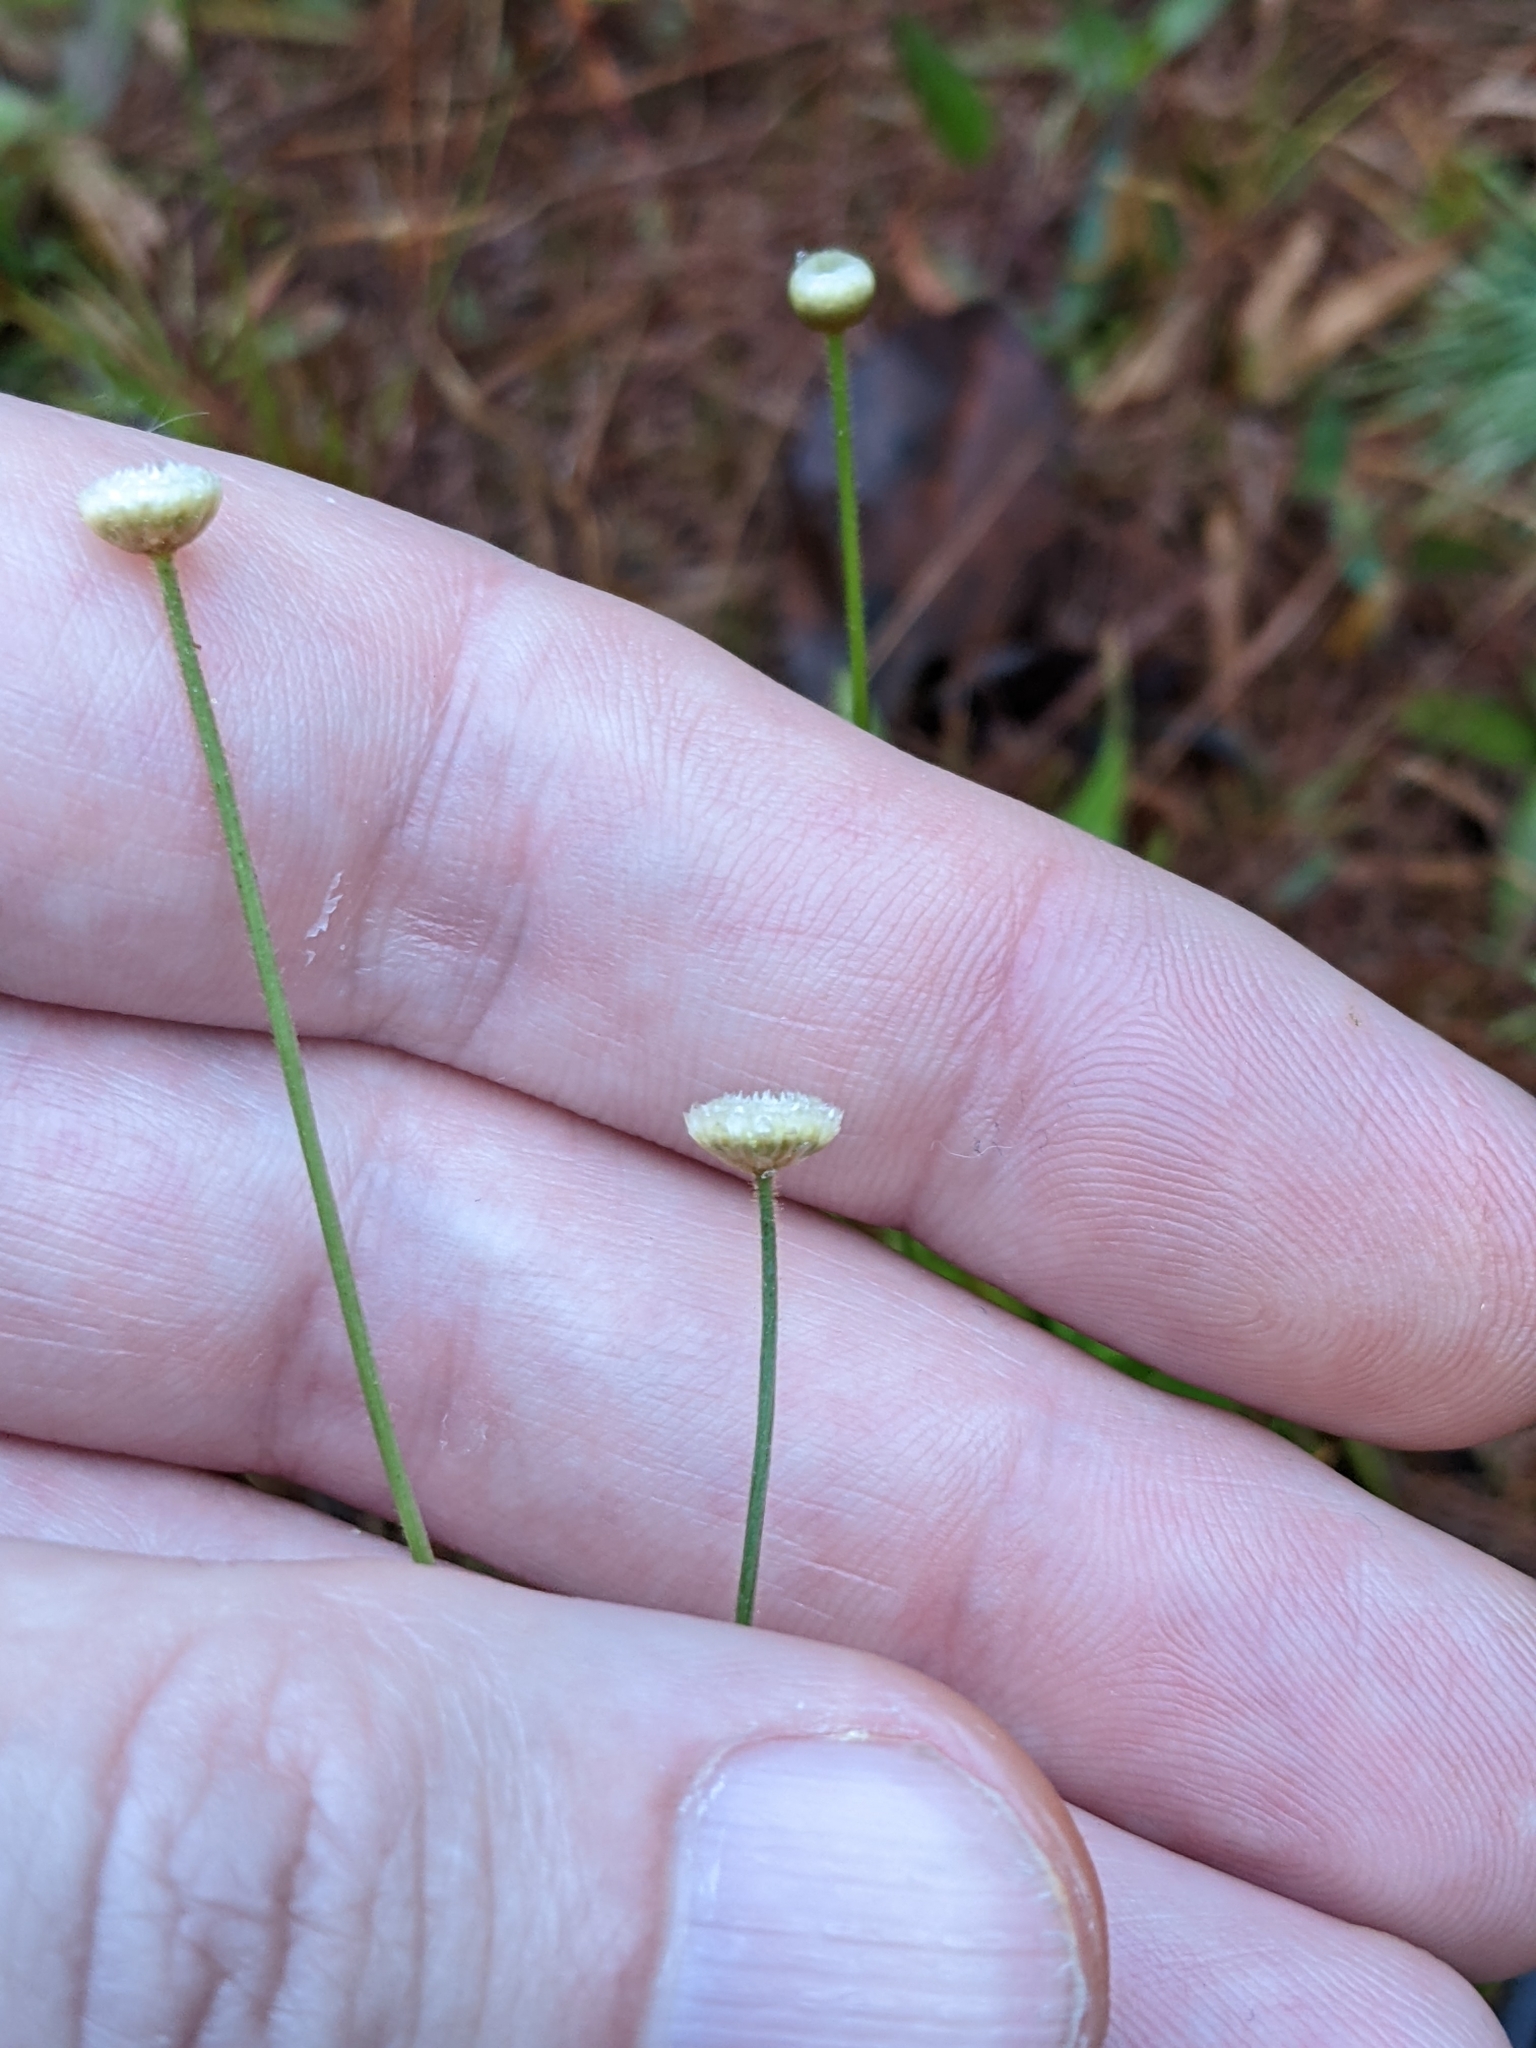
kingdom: Plantae
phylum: Tracheophyta
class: Liliopsida
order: Poales
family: Eriocaulaceae
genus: Syngonanthus
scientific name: Syngonanthus flavidulus
